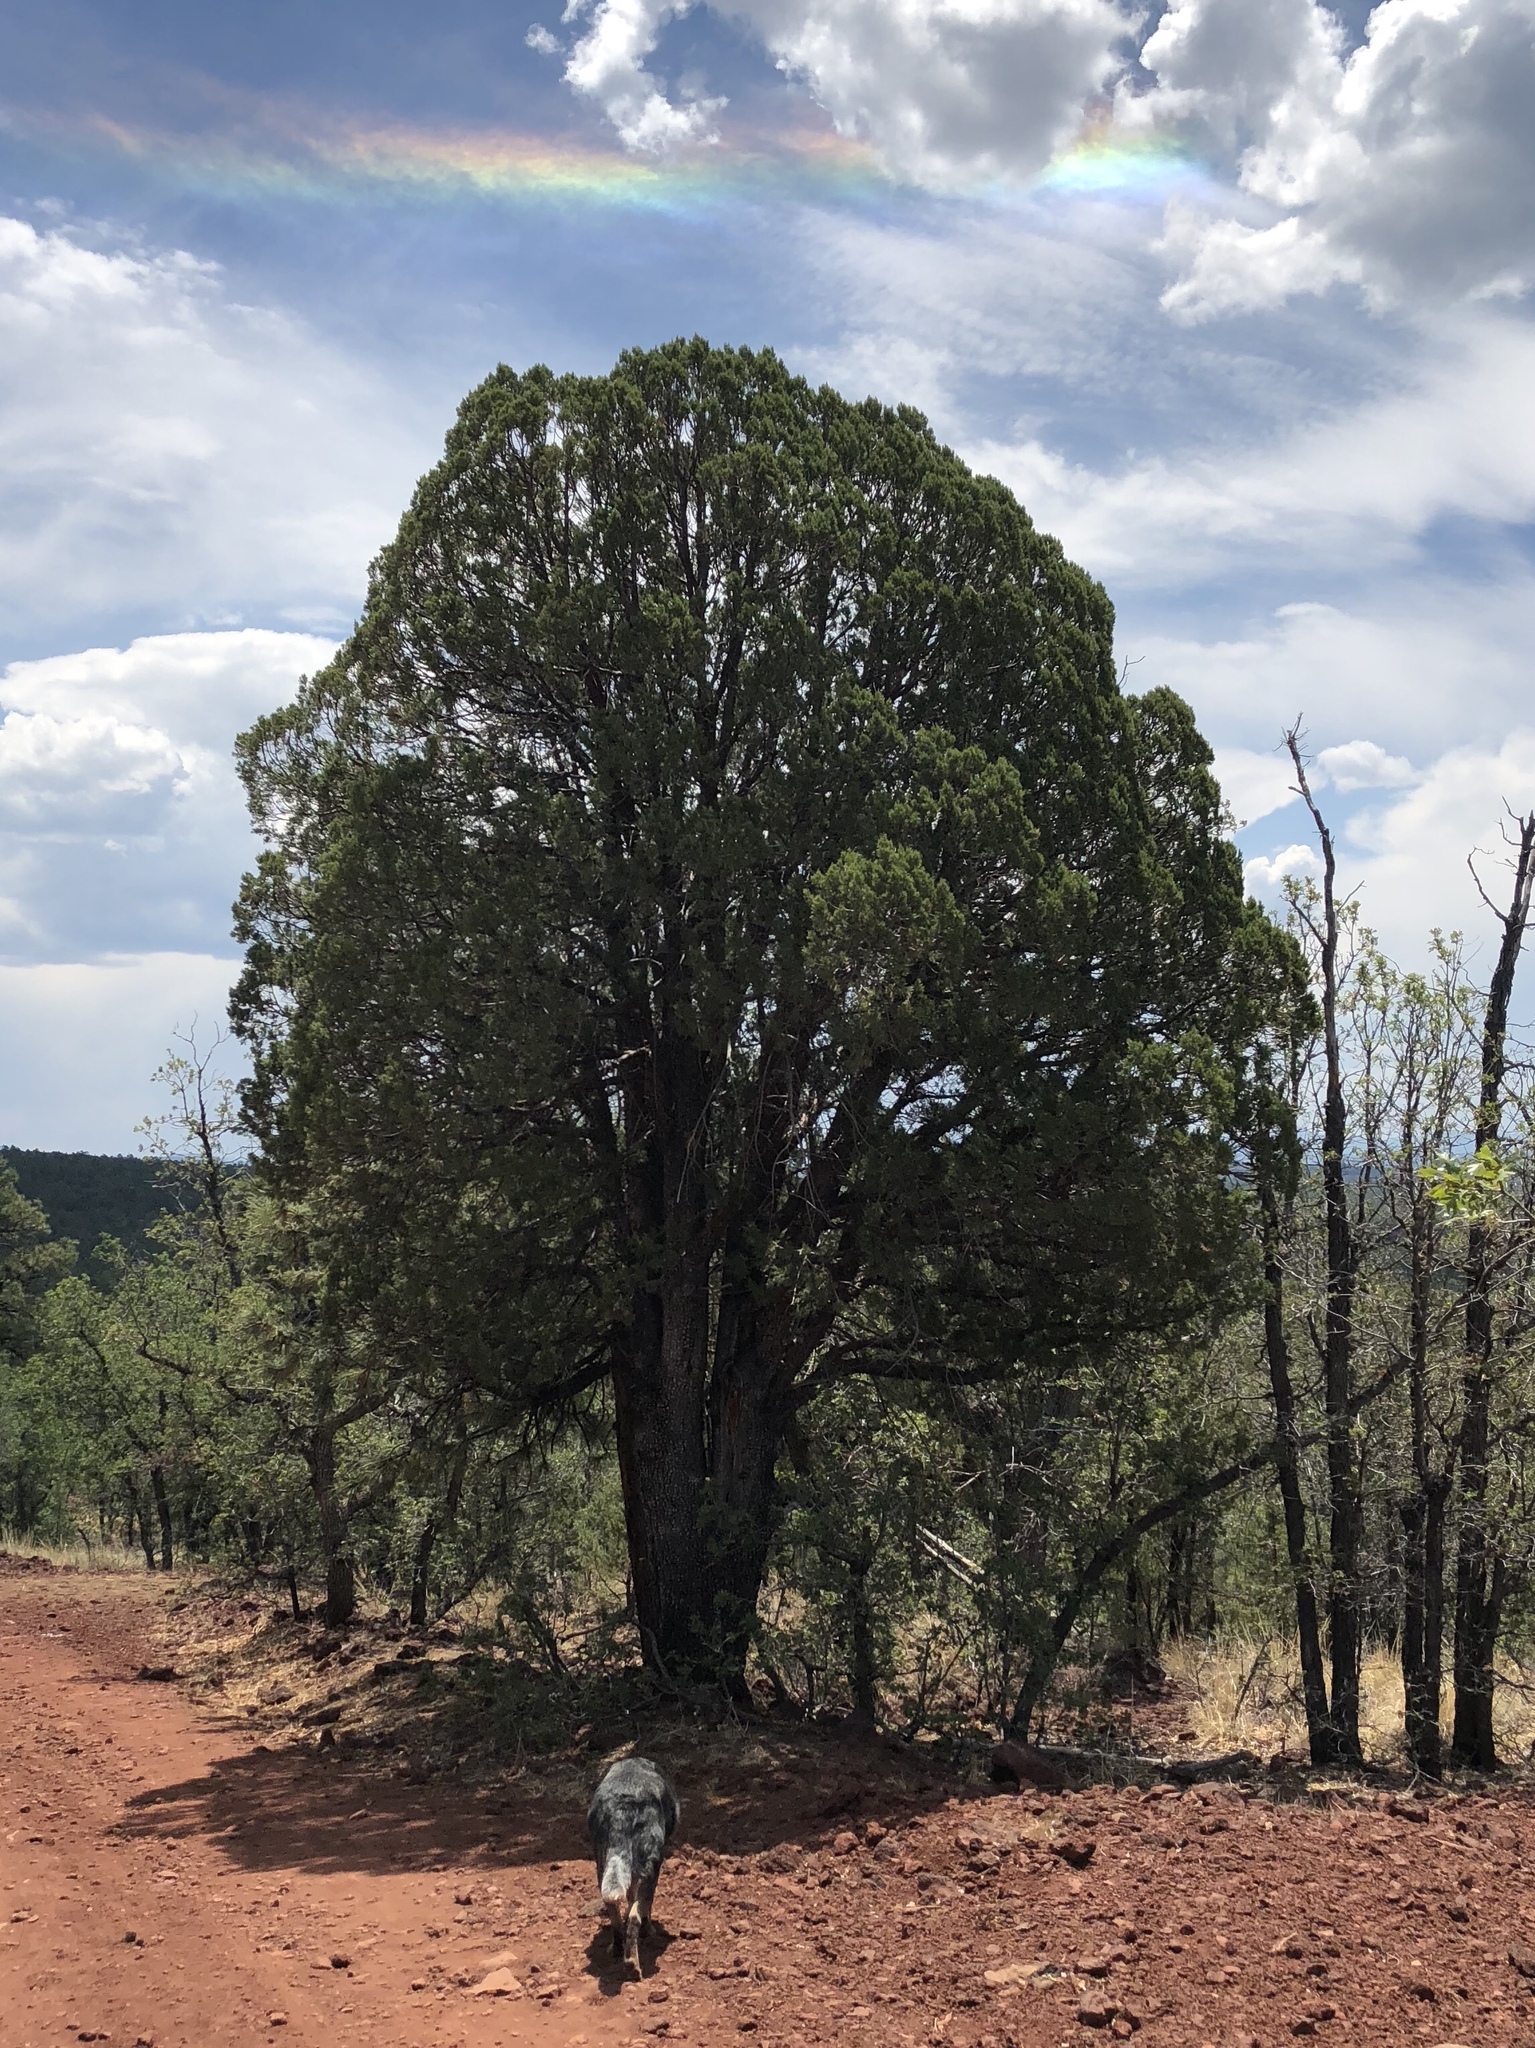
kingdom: Plantae
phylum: Tracheophyta
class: Pinopsida
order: Pinales
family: Cupressaceae
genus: Juniperus
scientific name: Juniperus deppeana
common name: Alligator juniper
